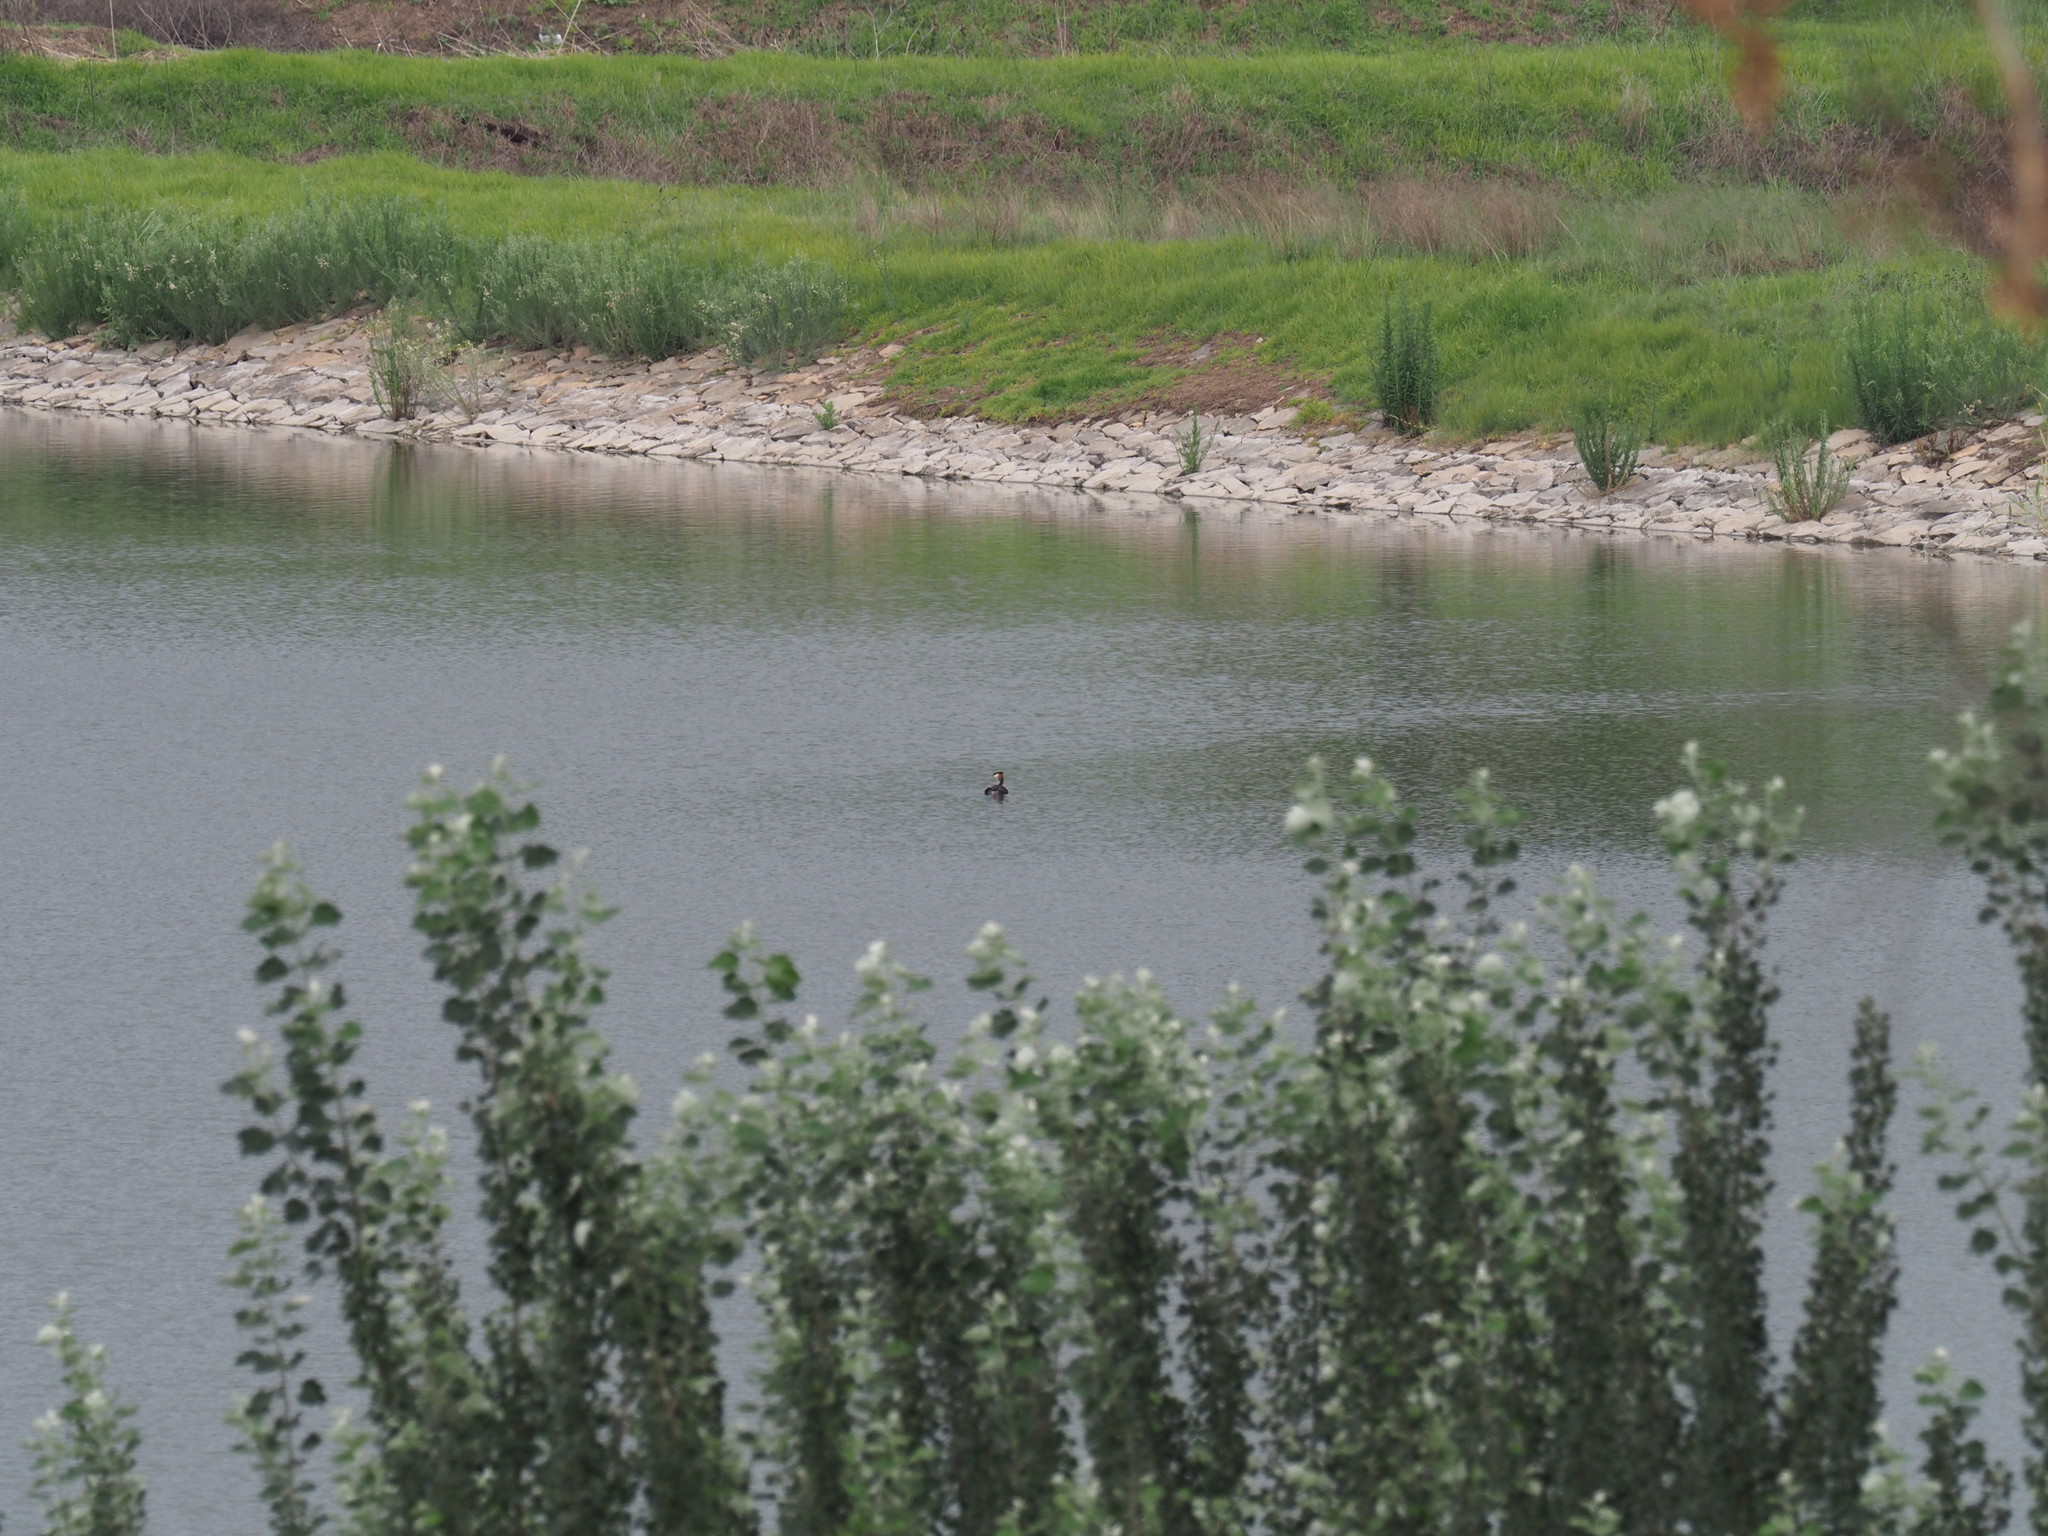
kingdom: Animalia
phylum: Chordata
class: Aves
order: Podicipediformes
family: Podicipedidae
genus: Podiceps
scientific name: Podiceps cristatus
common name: Great crested grebe
